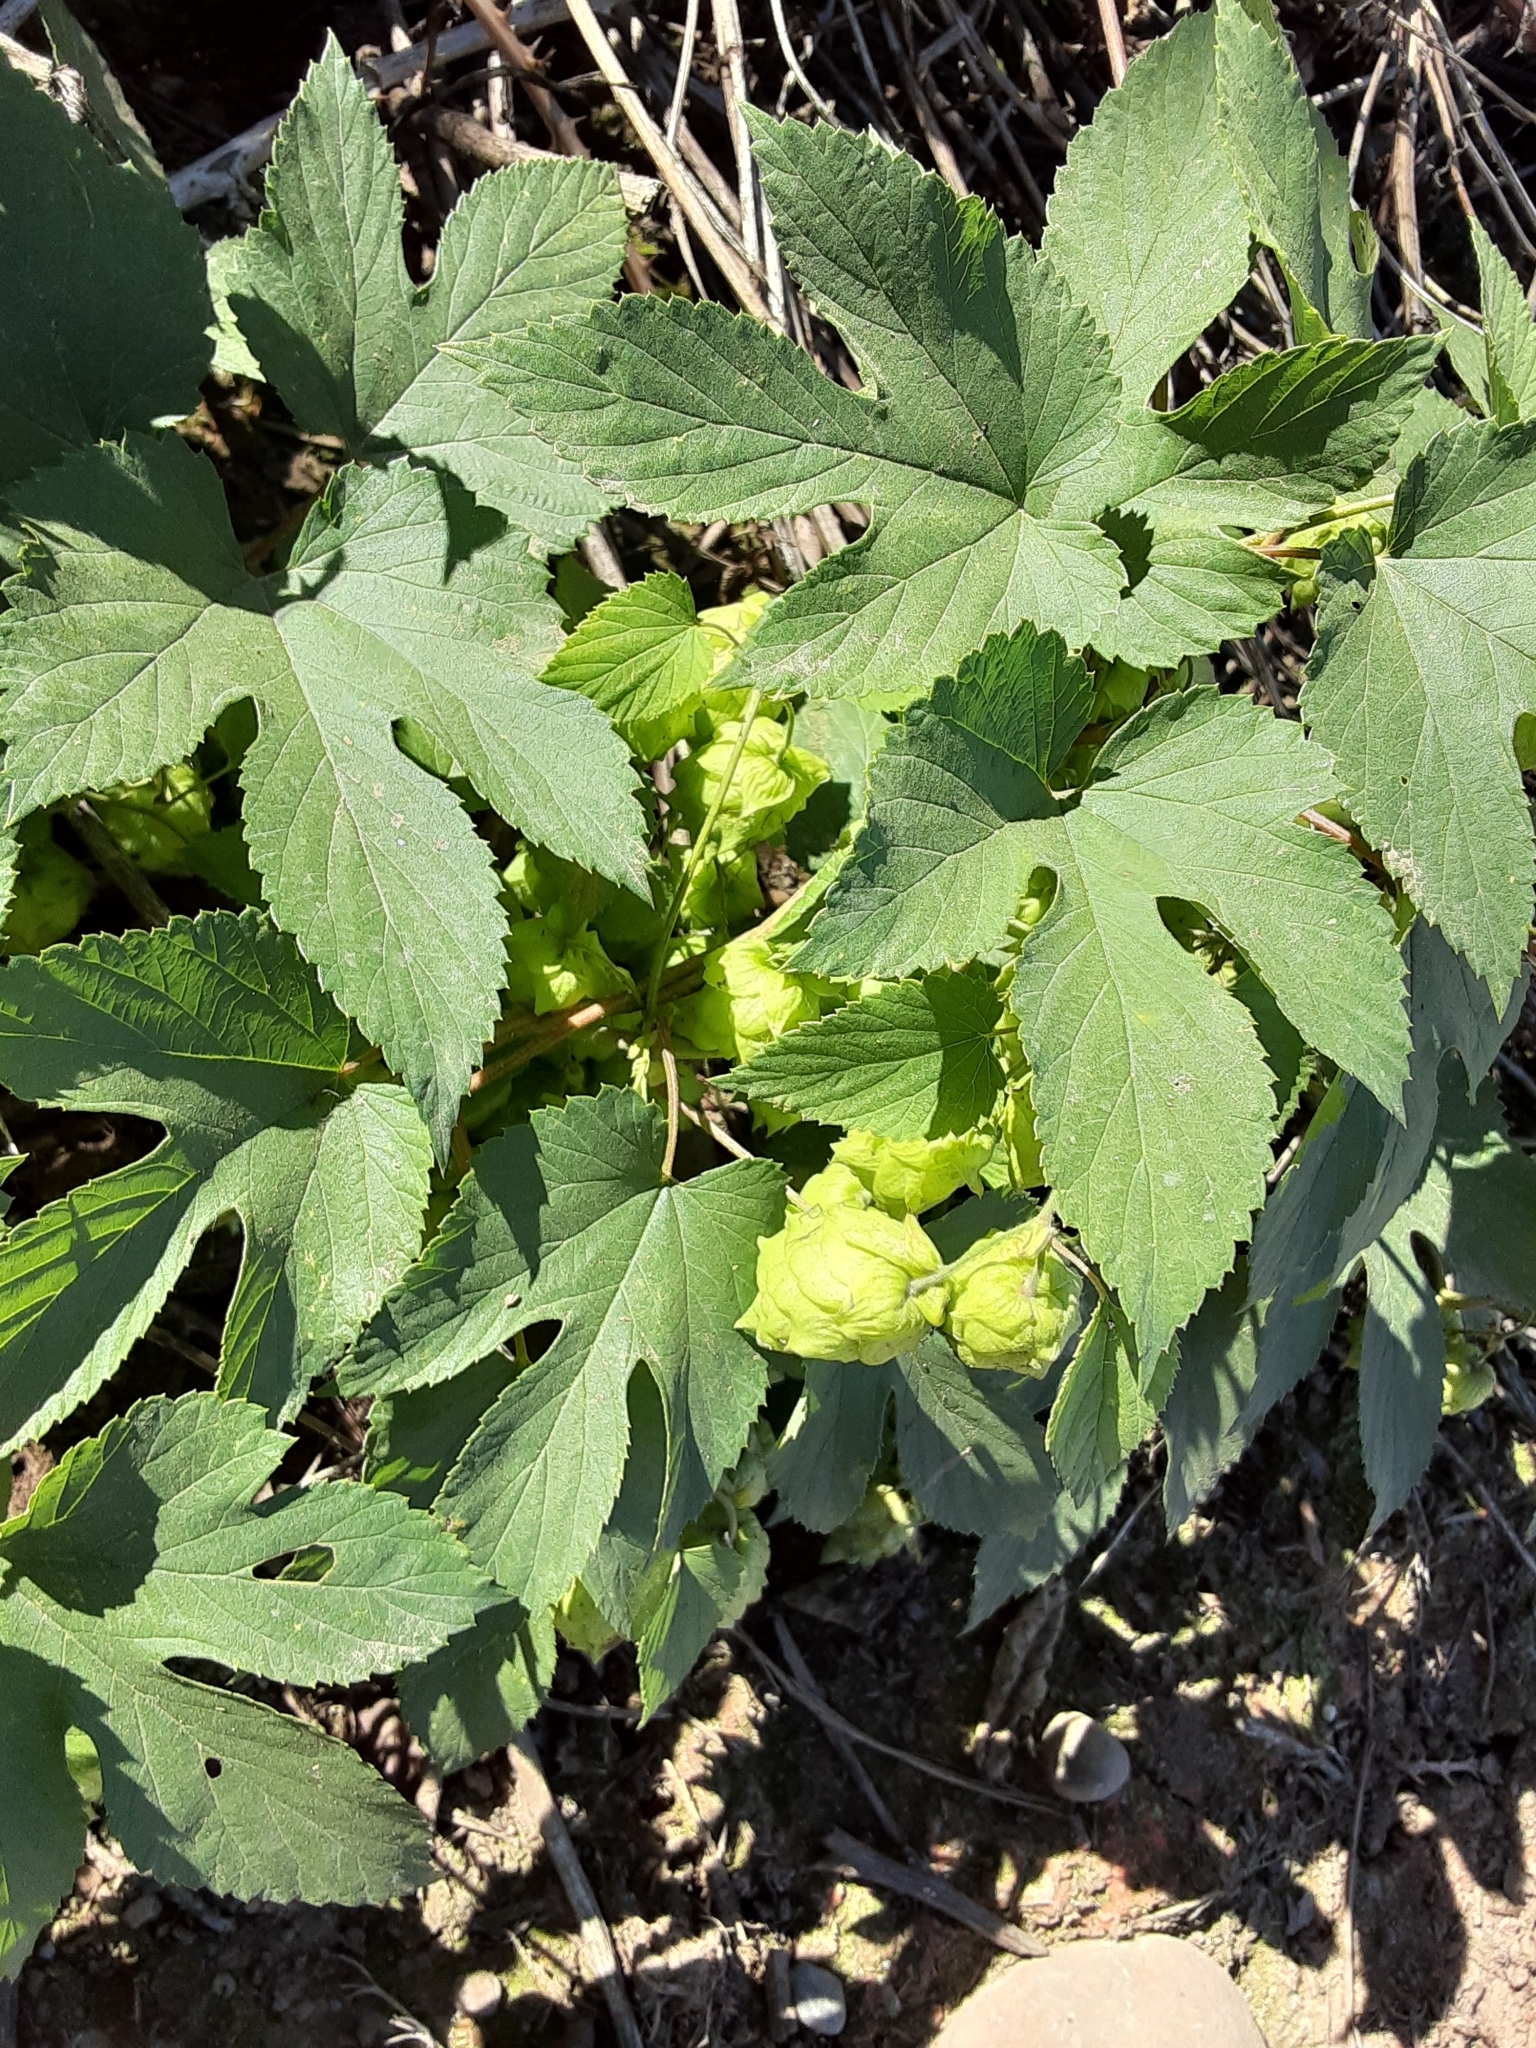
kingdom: Plantae
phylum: Tracheophyta
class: Magnoliopsida
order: Rosales
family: Cannabaceae
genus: Humulus
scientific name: Humulus lupulus
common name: Hop
